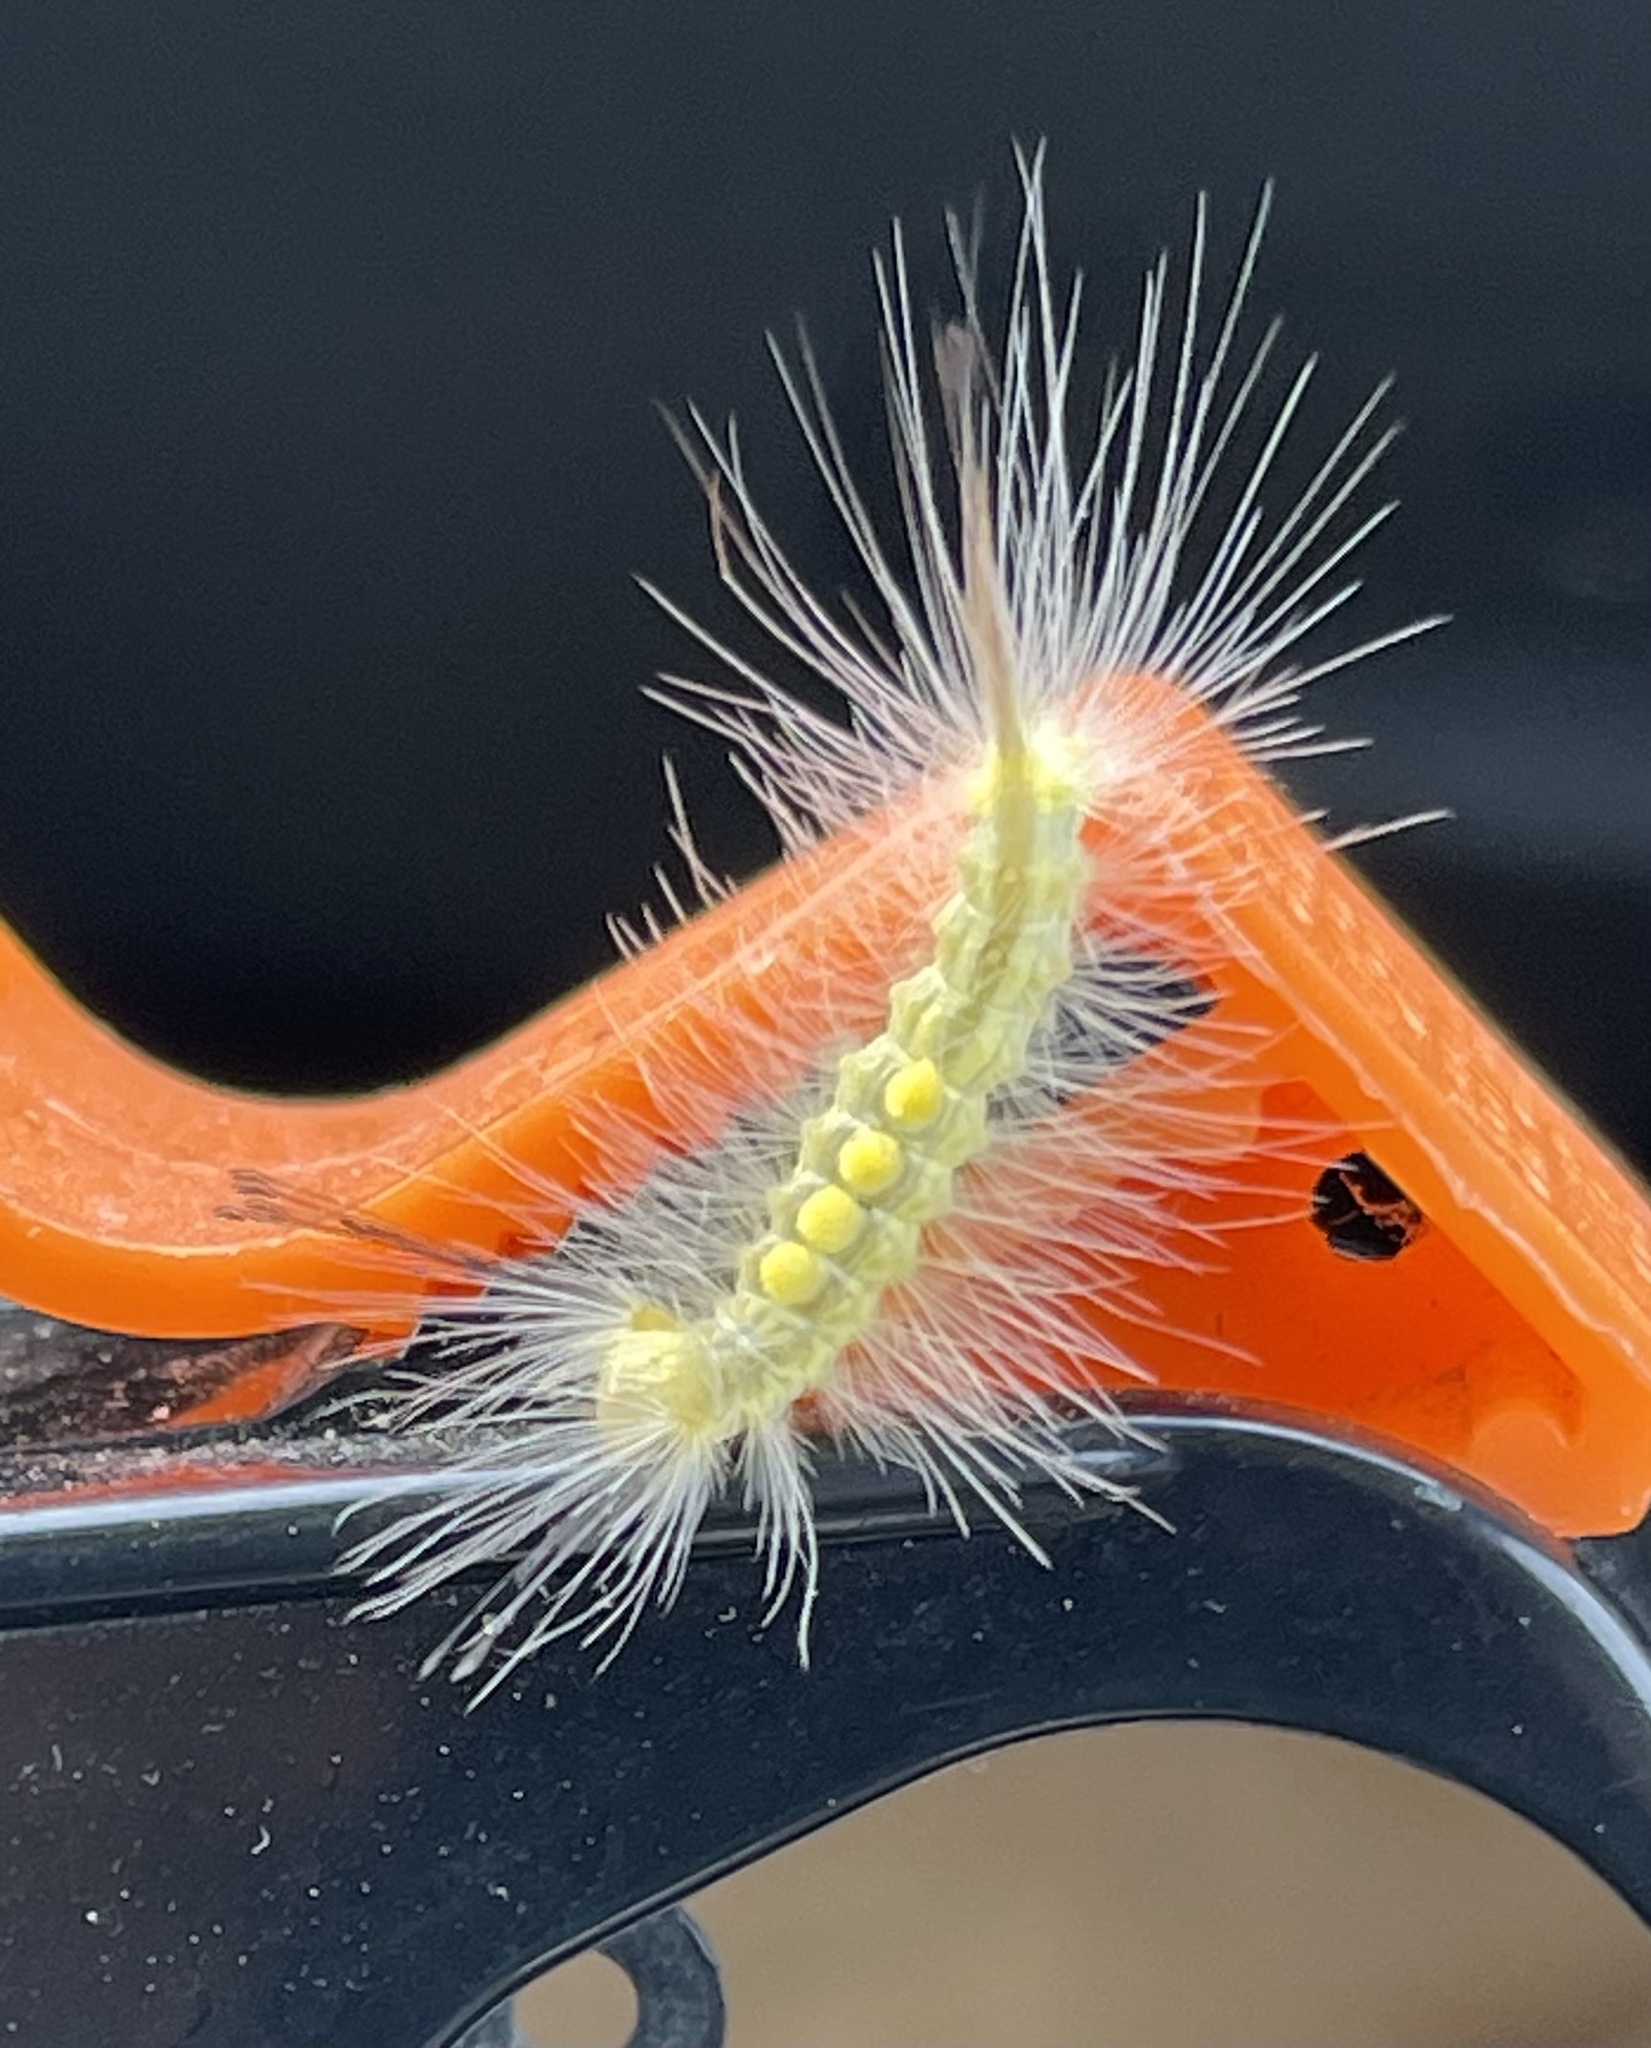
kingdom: Animalia
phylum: Arthropoda
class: Insecta
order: Lepidoptera
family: Erebidae
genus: Orgyia
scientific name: Orgyia definita
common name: Definite tussock moth
